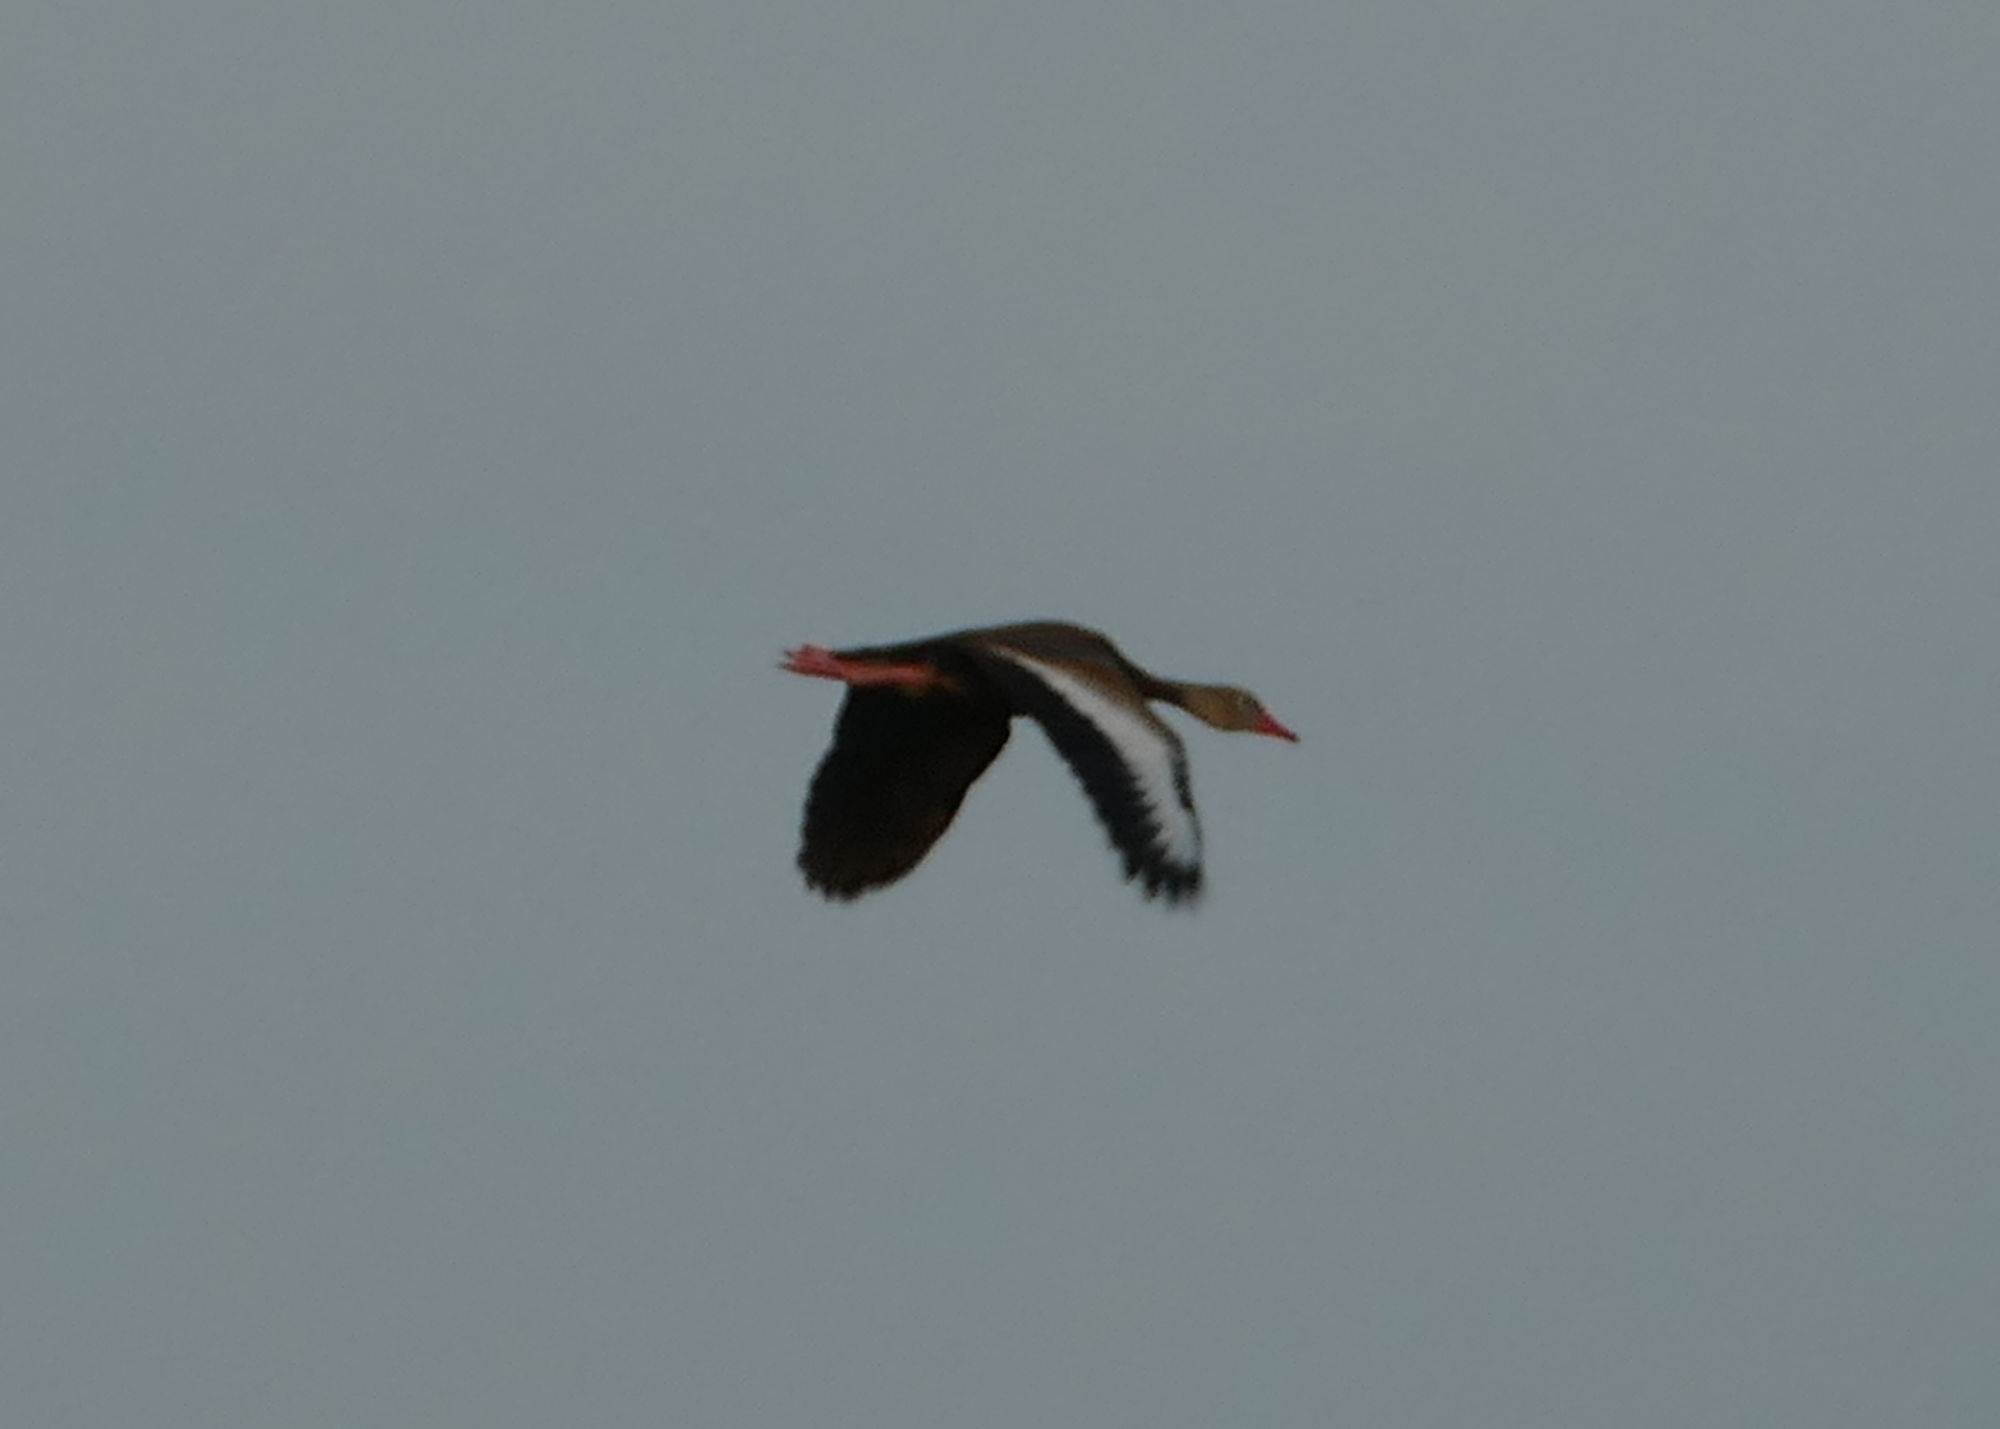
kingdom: Animalia
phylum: Chordata
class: Aves
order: Anseriformes
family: Anatidae
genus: Dendrocygna
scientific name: Dendrocygna autumnalis
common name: Black-bellied whistling duck
